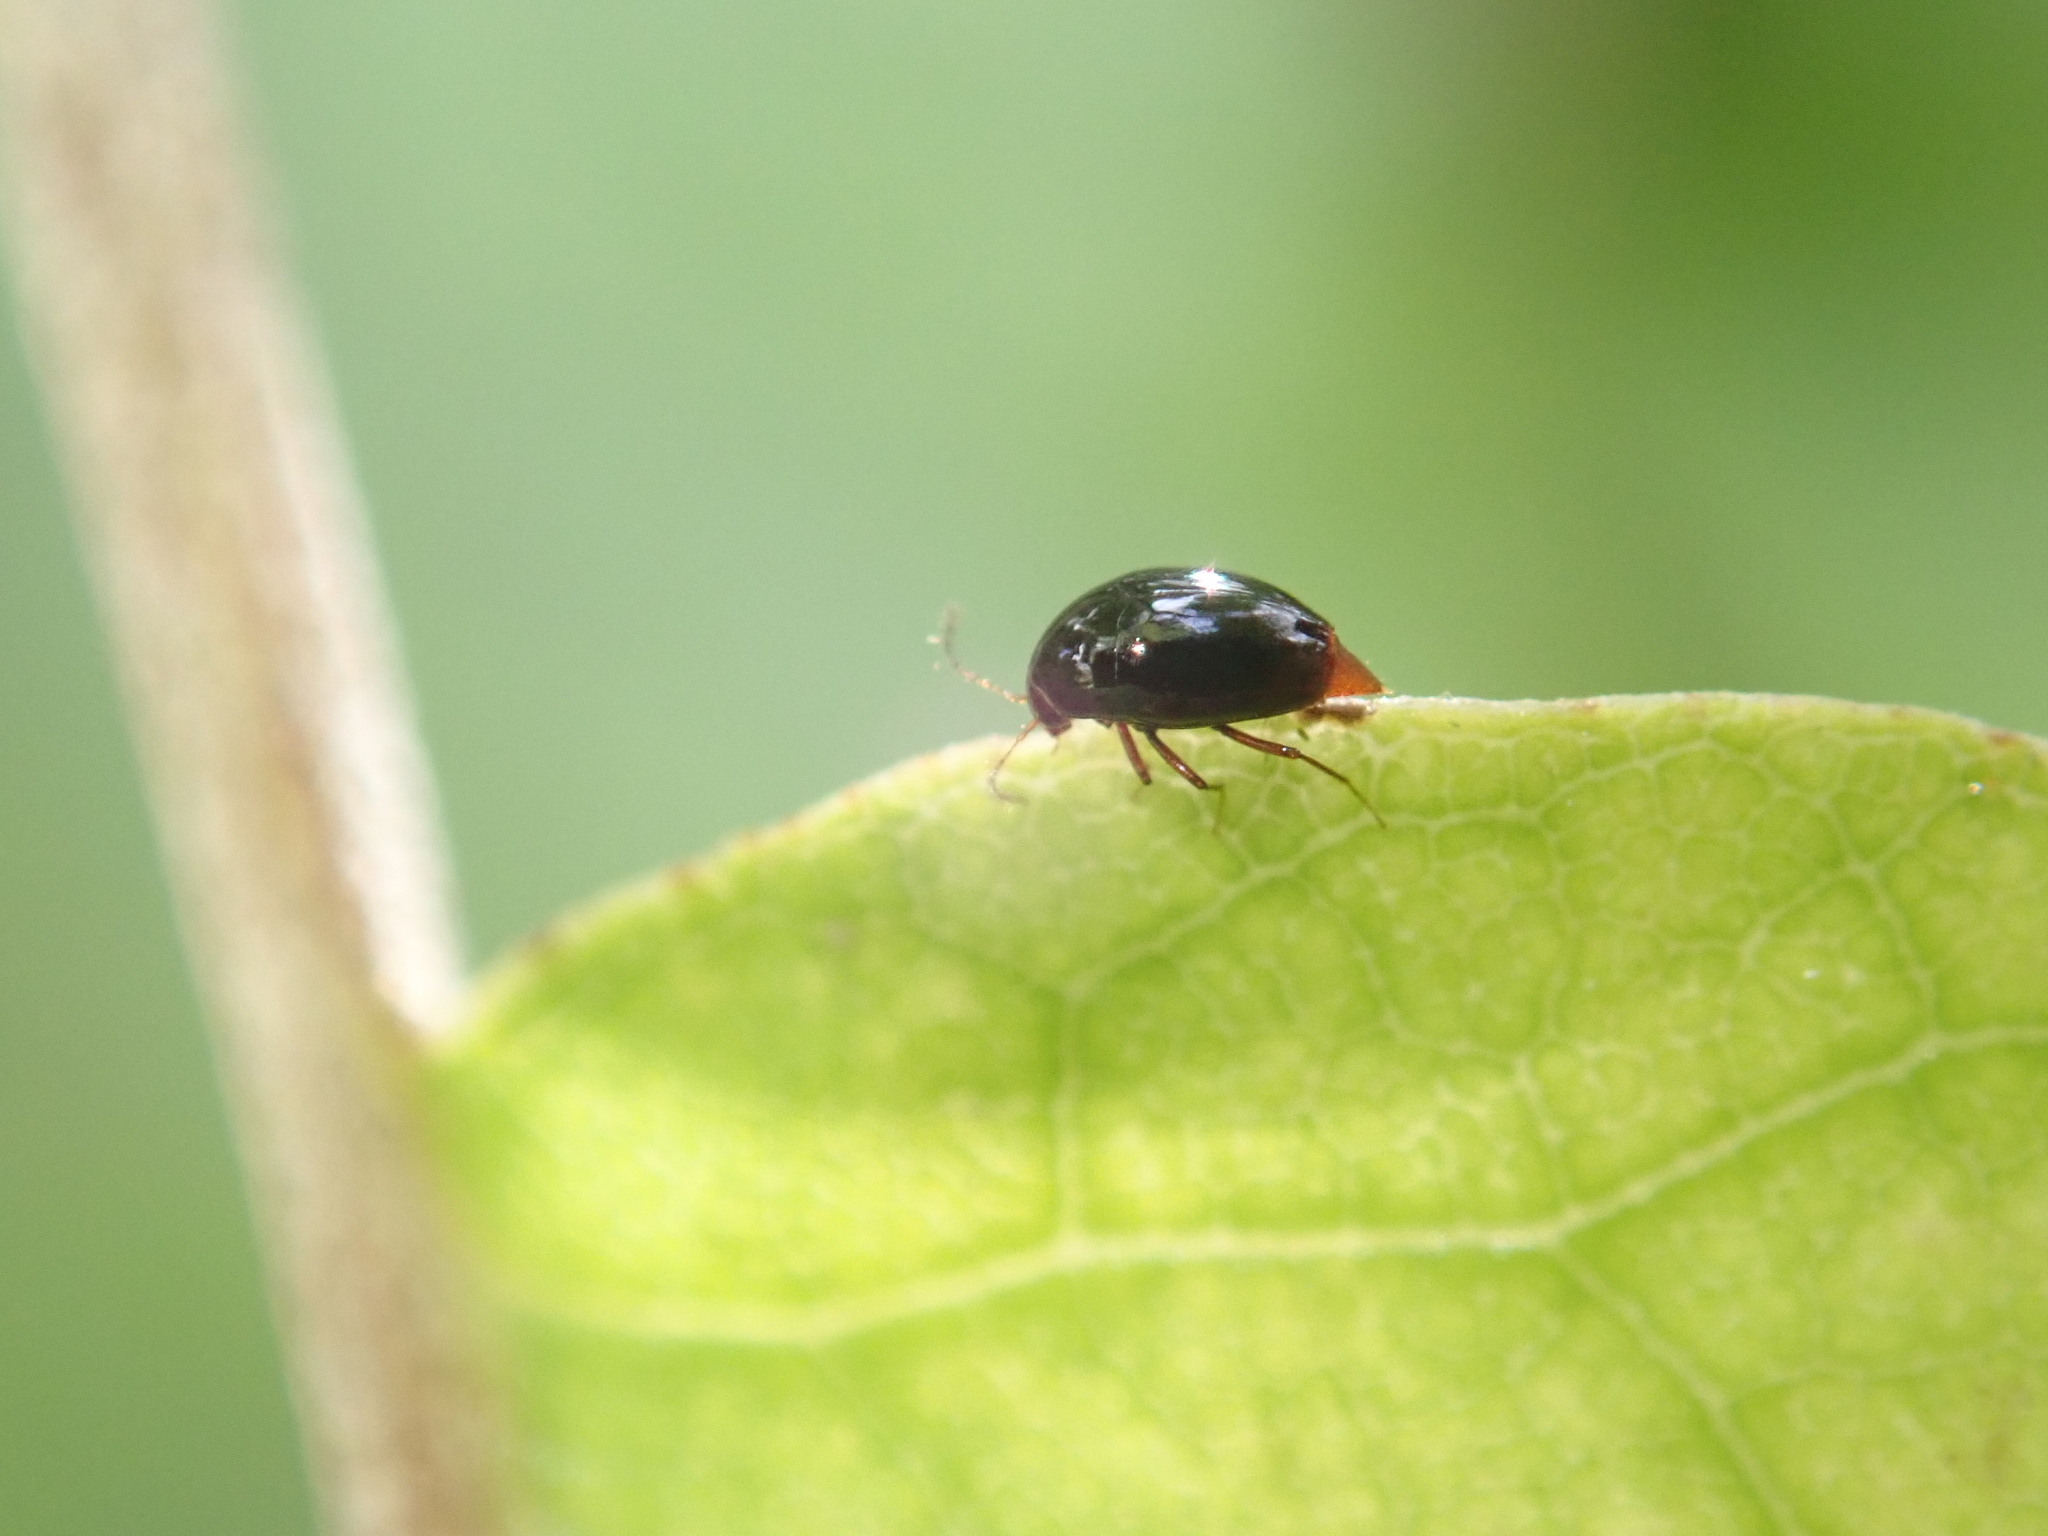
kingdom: Animalia
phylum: Arthropoda
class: Insecta
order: Coleoptera
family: Staphylinidae
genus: Brachynopus
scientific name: Brachynopus scutellaris
